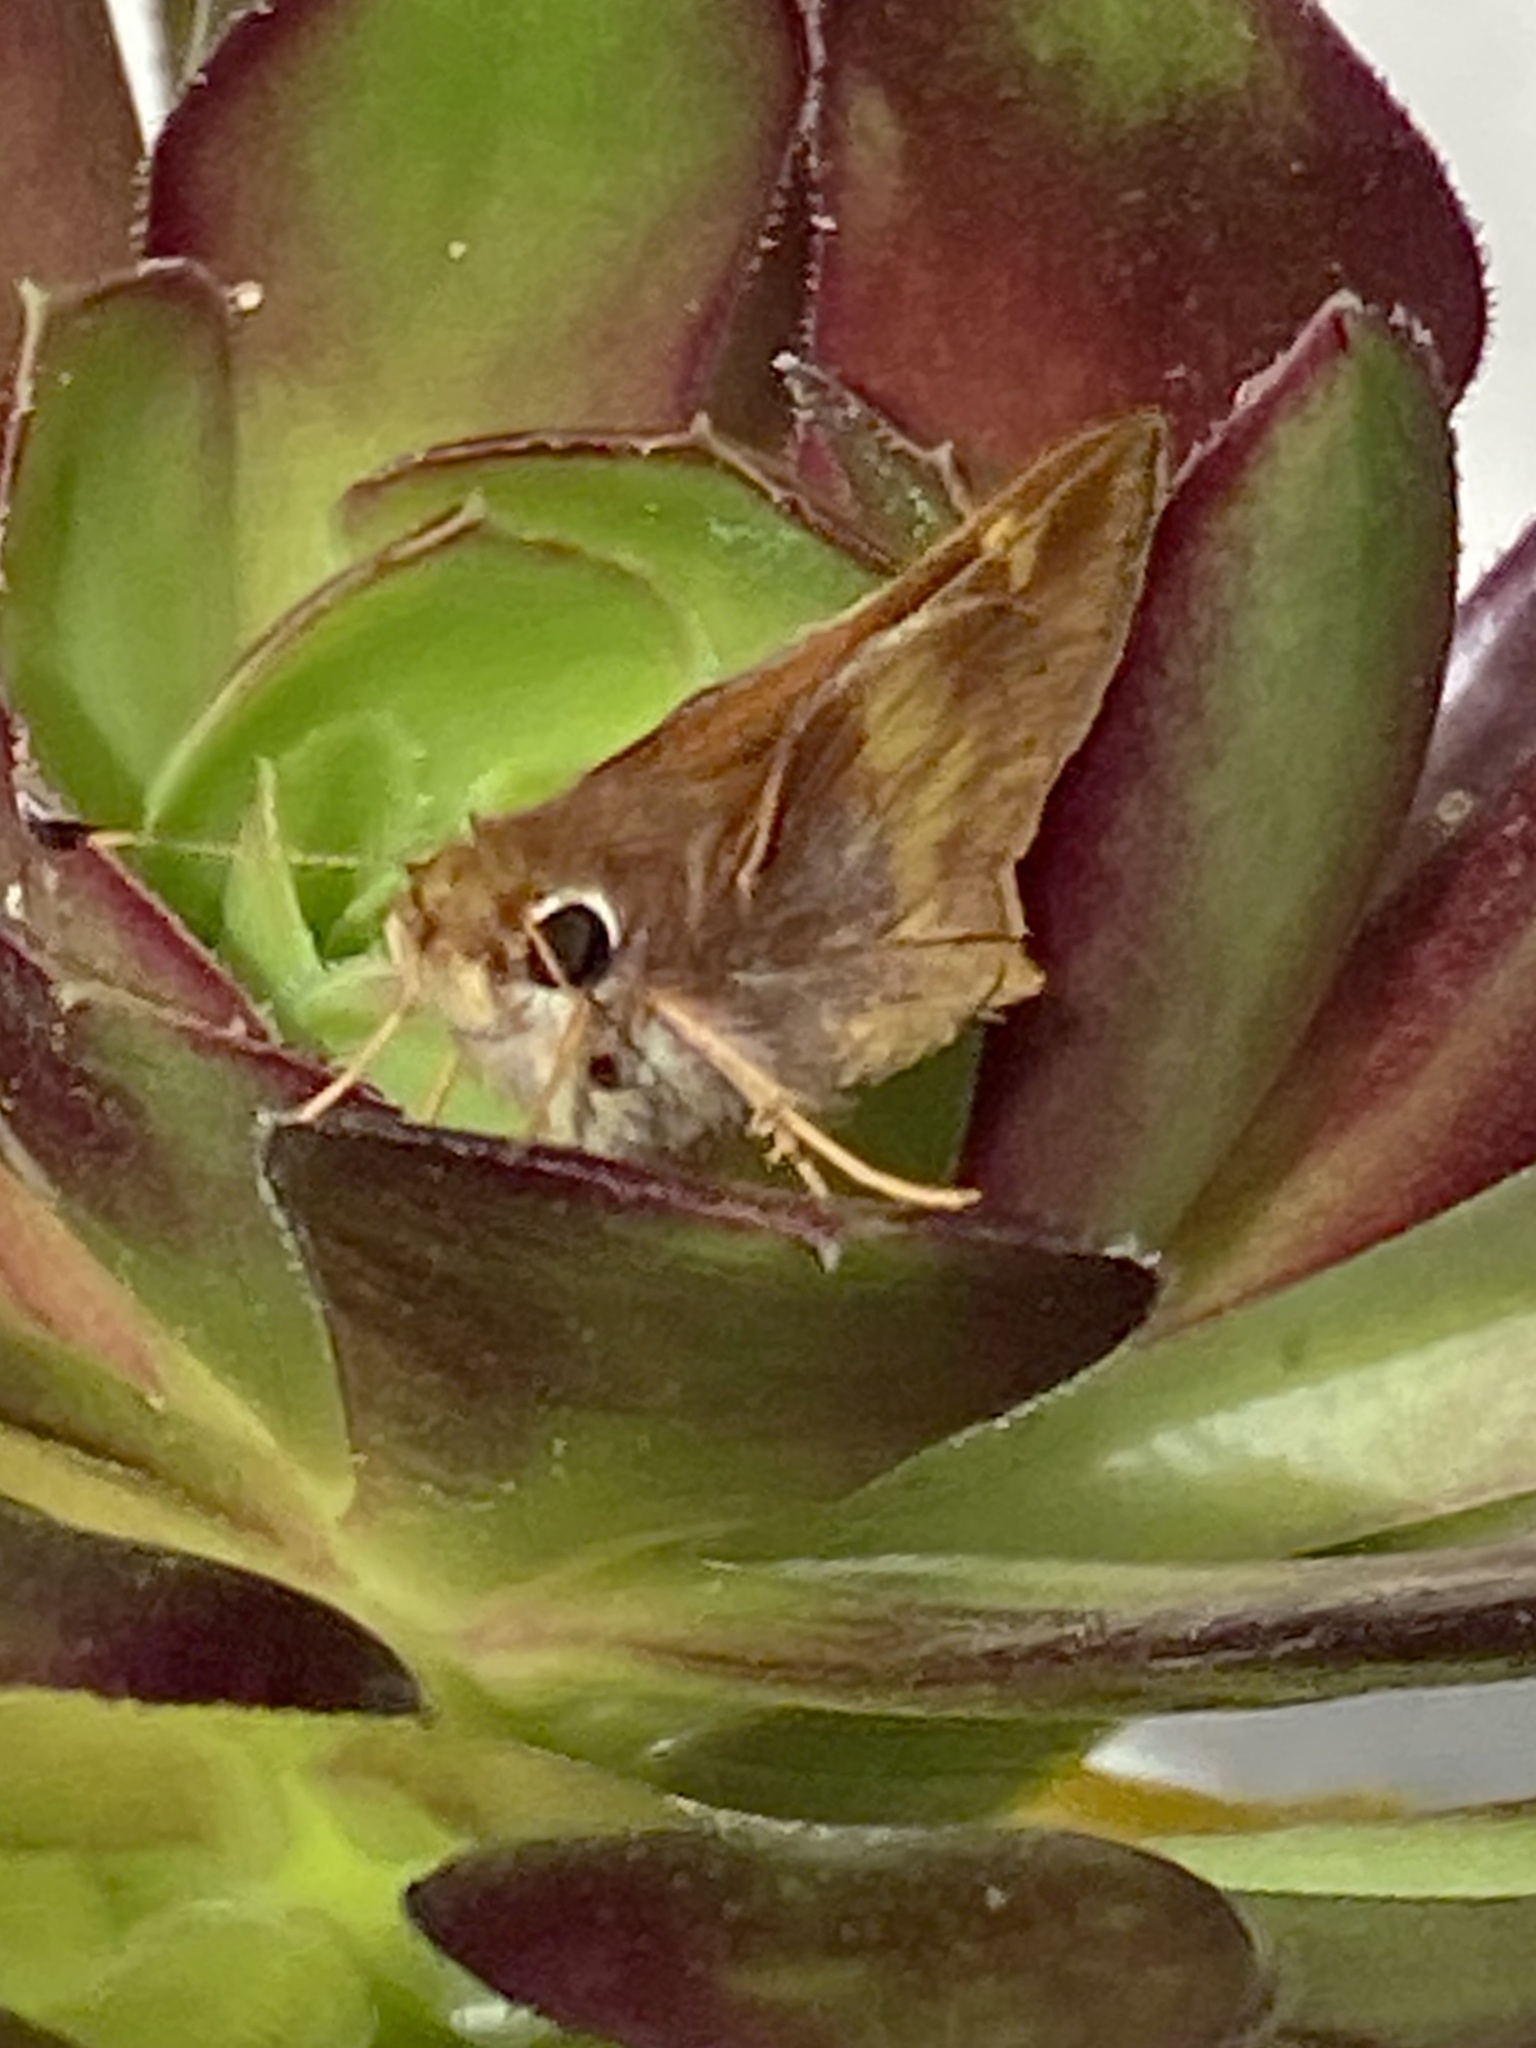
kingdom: Animalia
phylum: Arthropoda
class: Insecta
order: Lepidoptera
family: Hesperiidae
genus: Lon
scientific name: Lon melane
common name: Umber skipper
